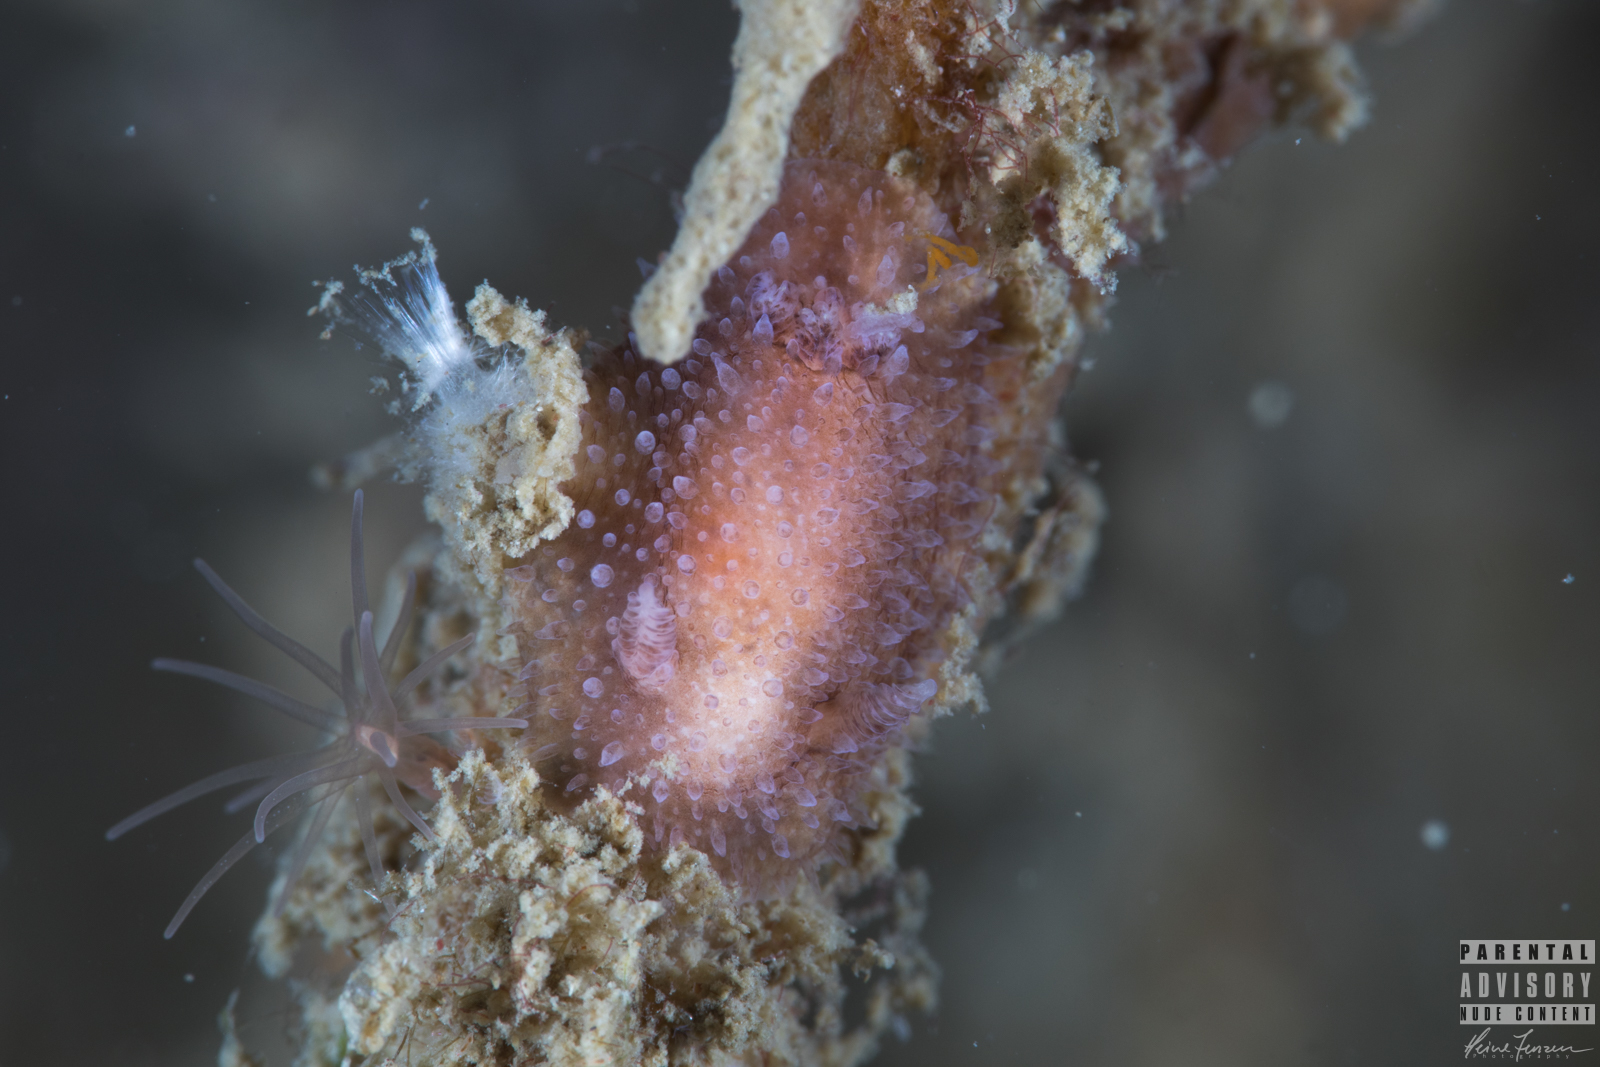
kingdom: Animalia
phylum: Mollusca
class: Gastropoda
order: Nudibranchia
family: Onchidorididae
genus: Acanthodoris
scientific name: Acanthodoris pilosa
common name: Hairy spiny doris
